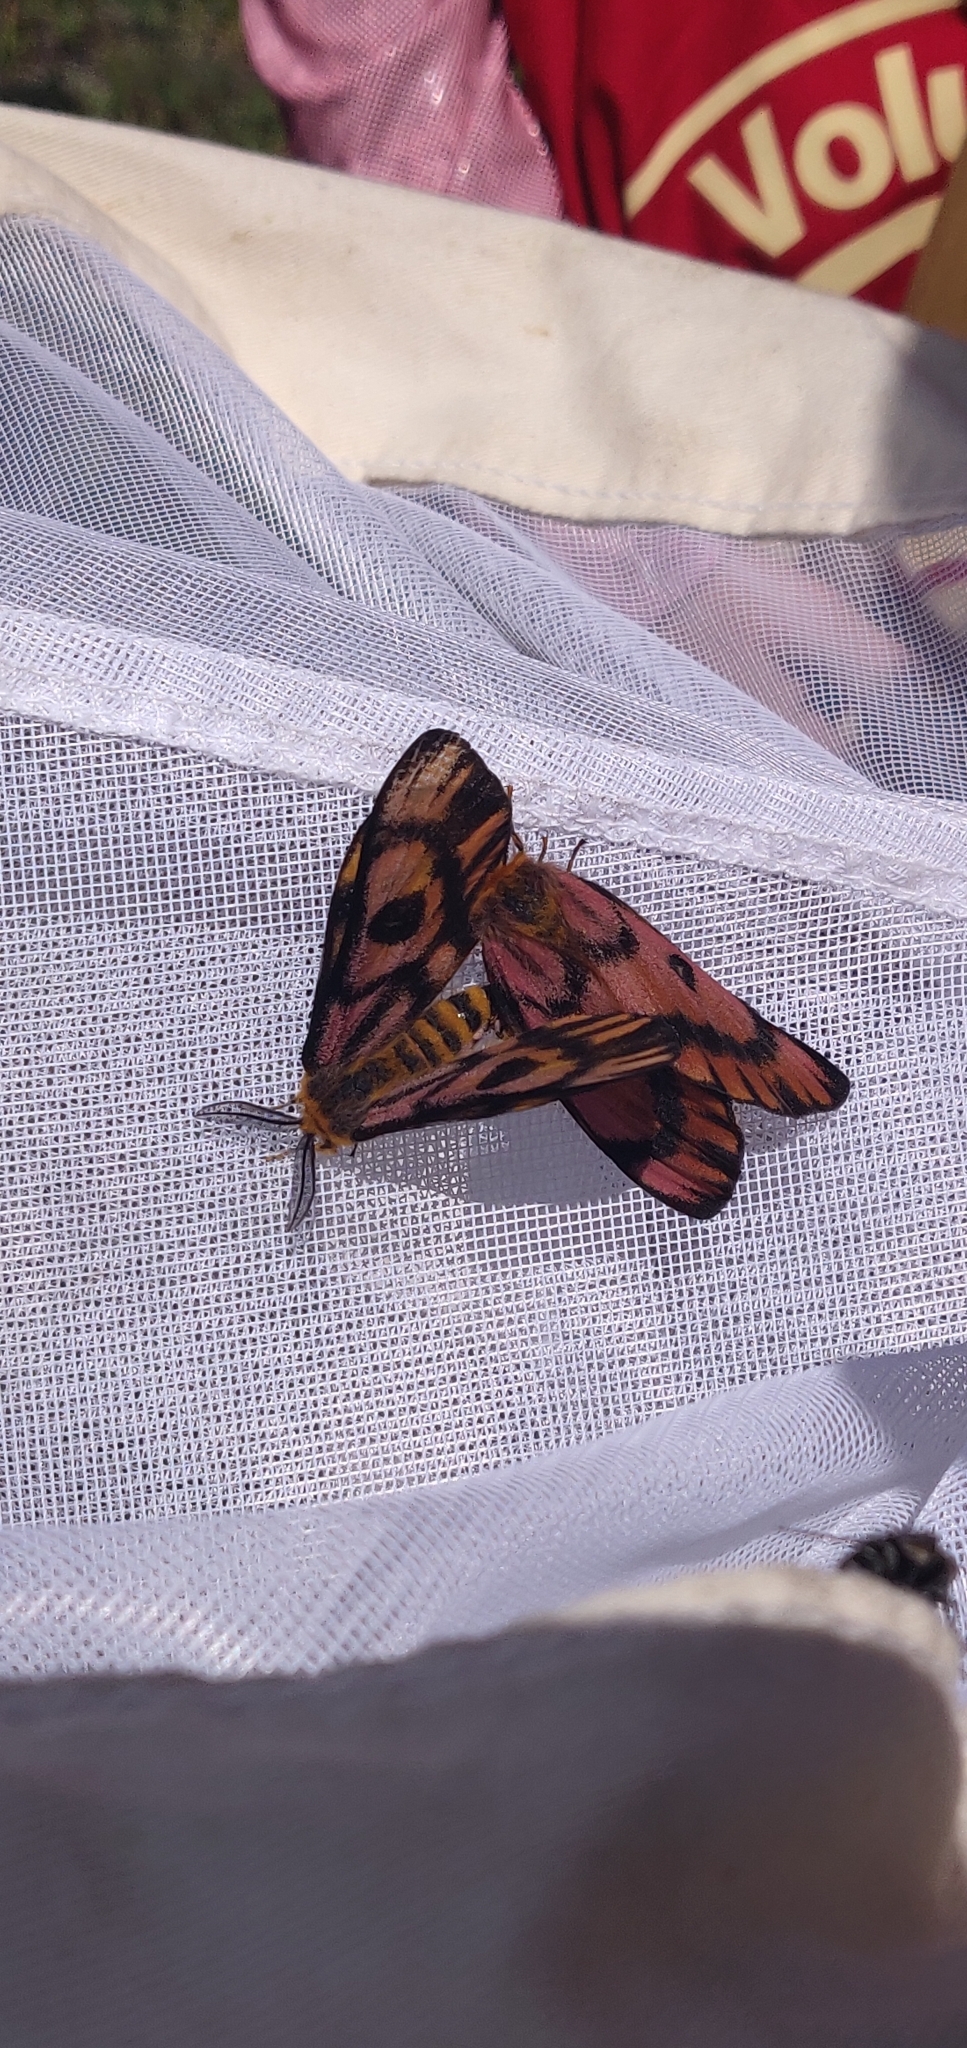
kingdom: Animalia
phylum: Arthropoda
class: Insecta
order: Lepidoptera
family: Saturniidae
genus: Hemileuca
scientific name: Hemileuca eglanterina
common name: Western sheepmoth
